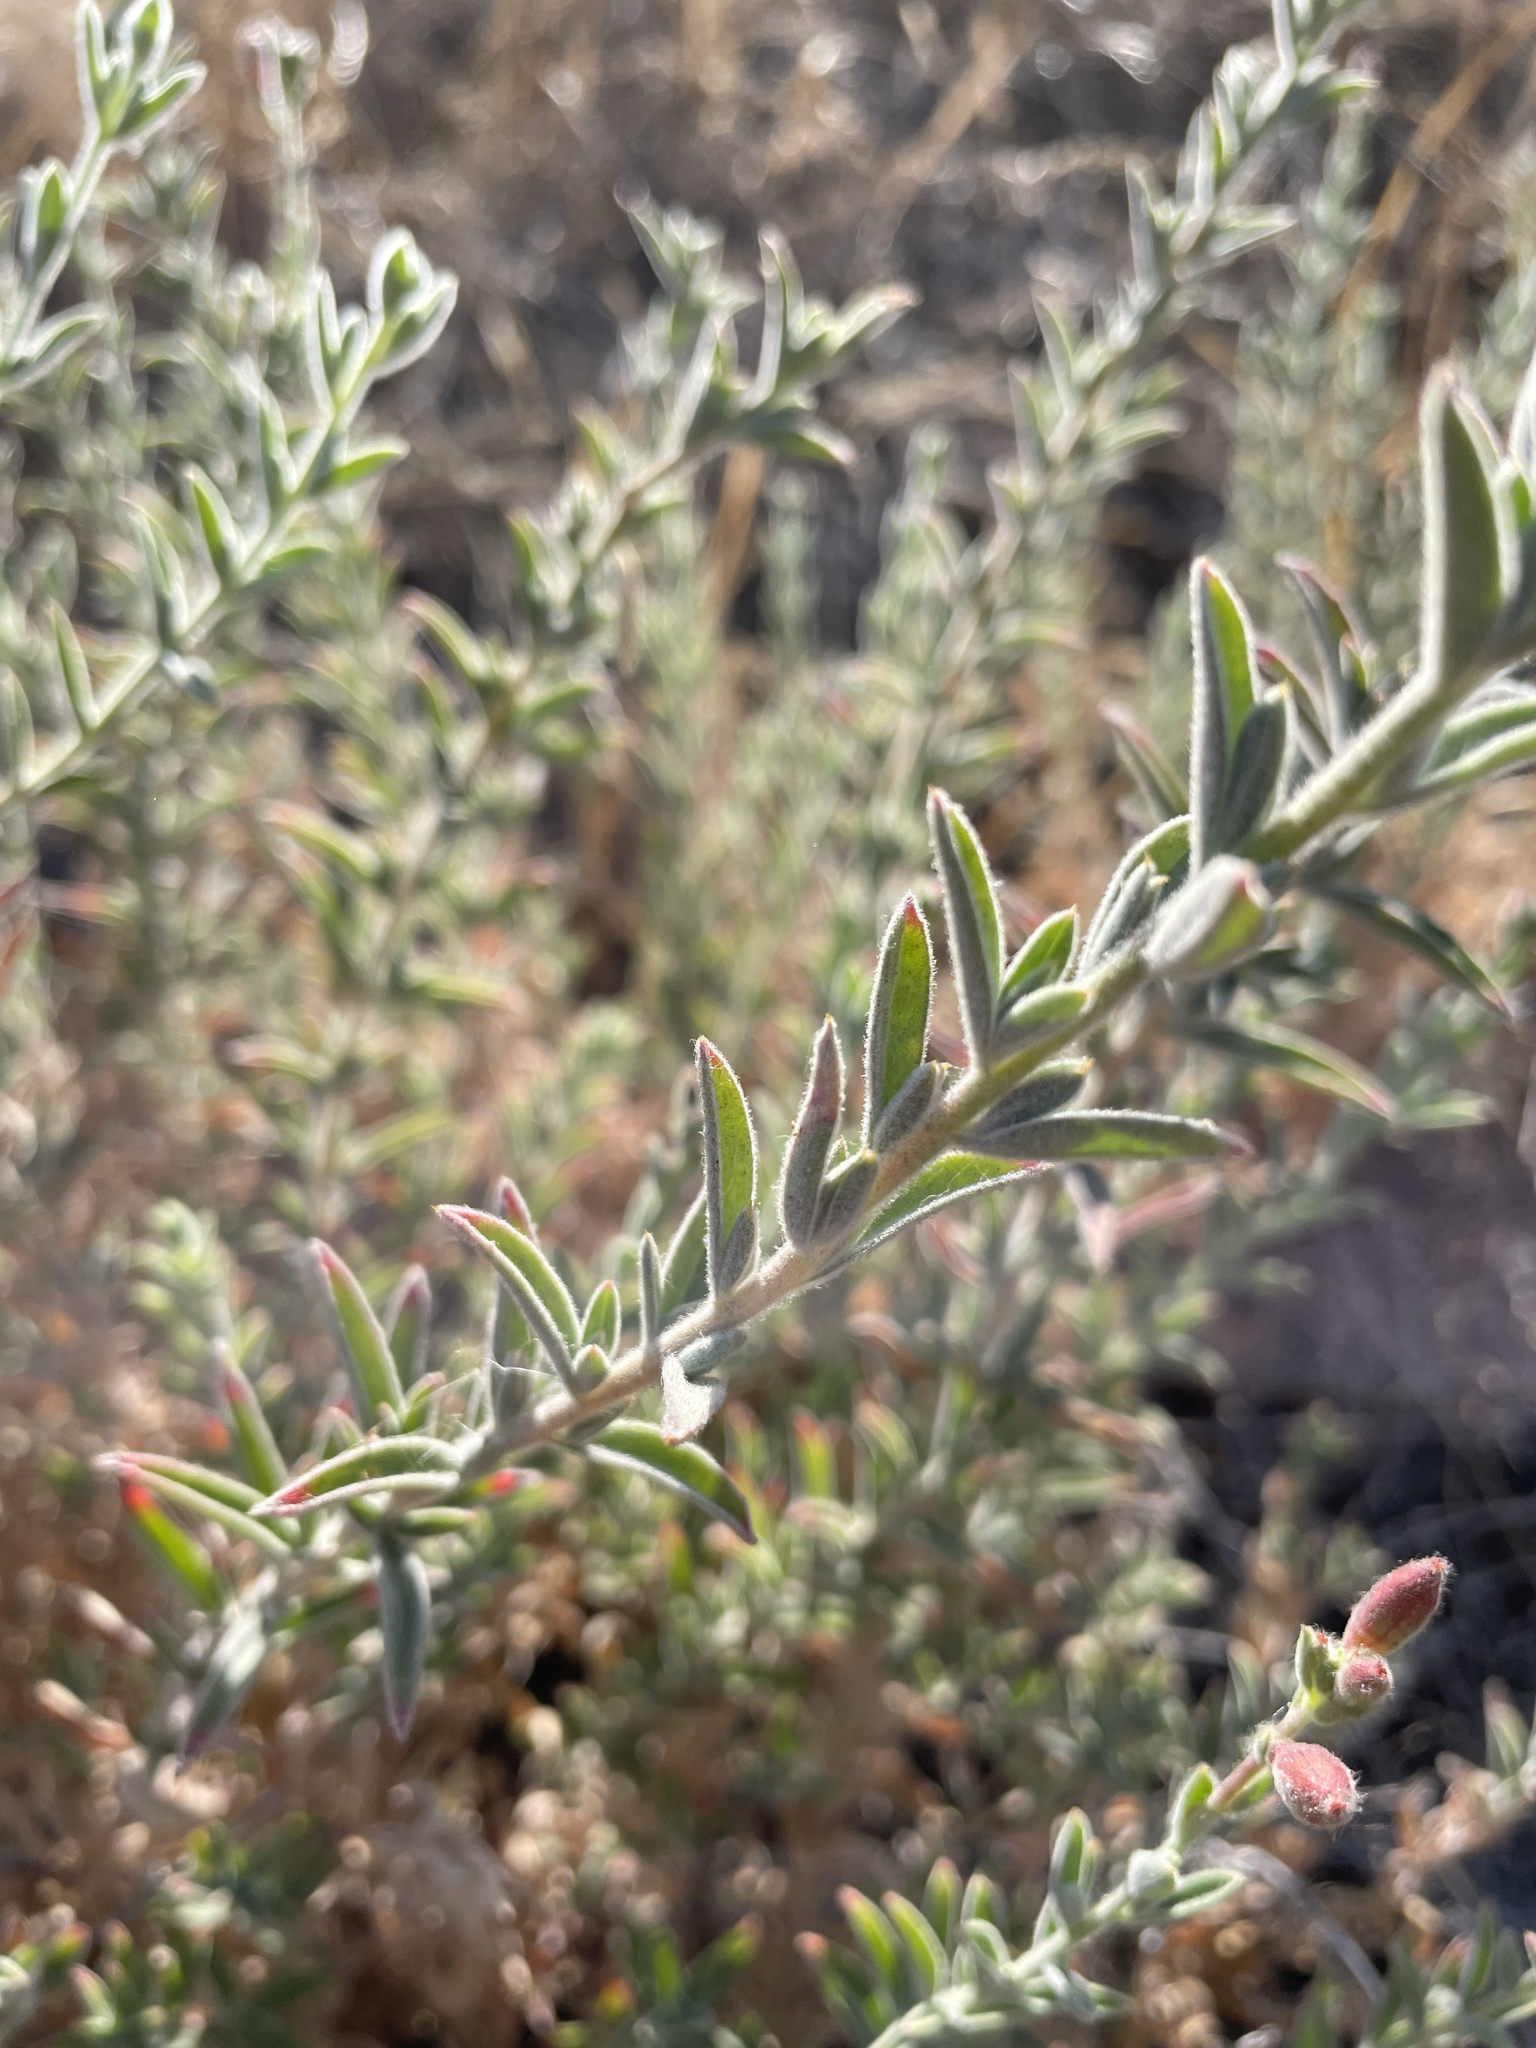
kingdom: Plantae
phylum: Tracheophyta
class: Magnoliopsida
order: Myrtales
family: Onagraceae
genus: Epilobium
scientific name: Epilobium canum
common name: California-fuchsia
